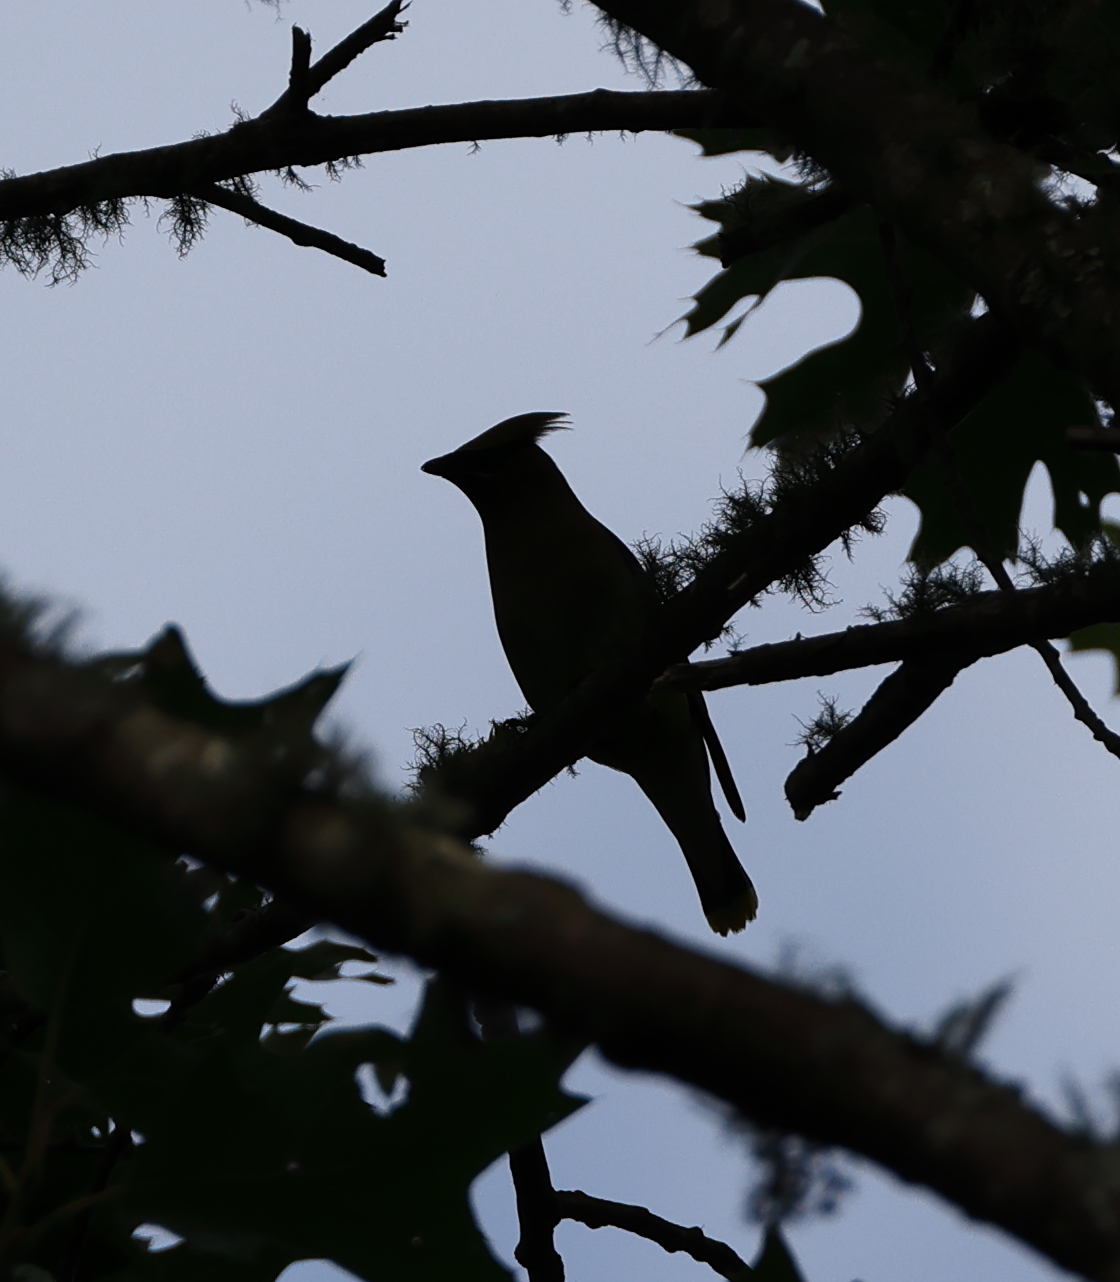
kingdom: Animalia
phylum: Chordata
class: Aves
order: Passeriformes
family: Bombycillidae
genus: Bombycilla
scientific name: Bombycilla cedrorum
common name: Cedar waxwing
